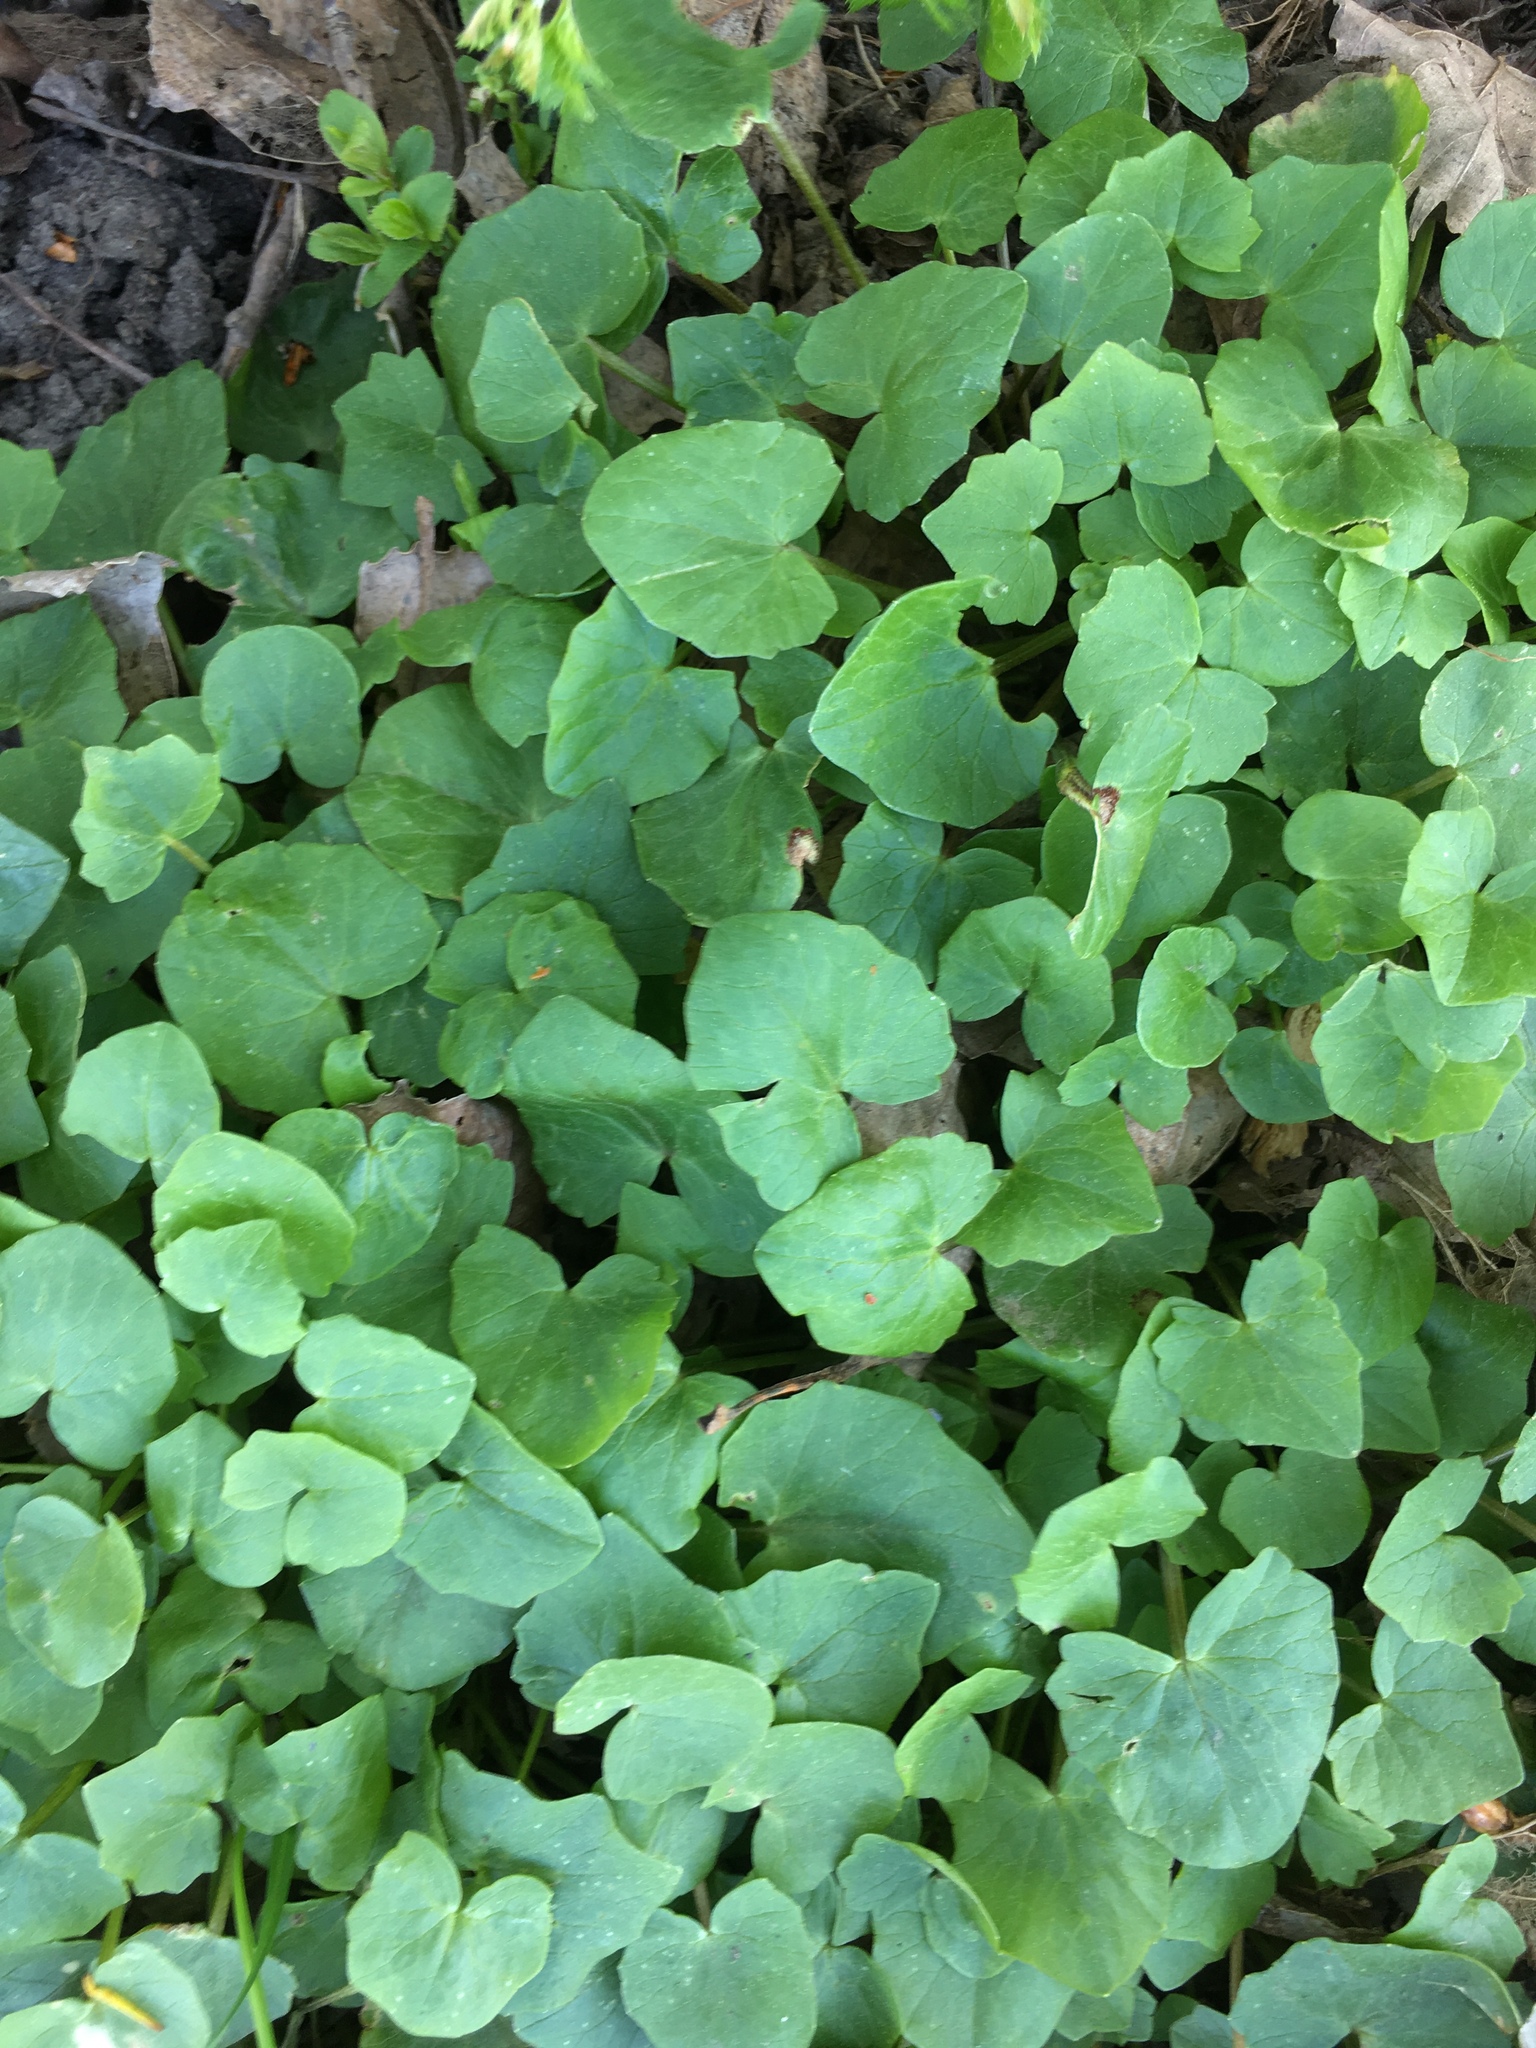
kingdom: Plantae
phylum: Tracheophyta
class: Magnoliopsida
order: Ranunculales
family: Ranunculaceae
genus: Ficaria
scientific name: Ficaria verna
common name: Lesser celandine
